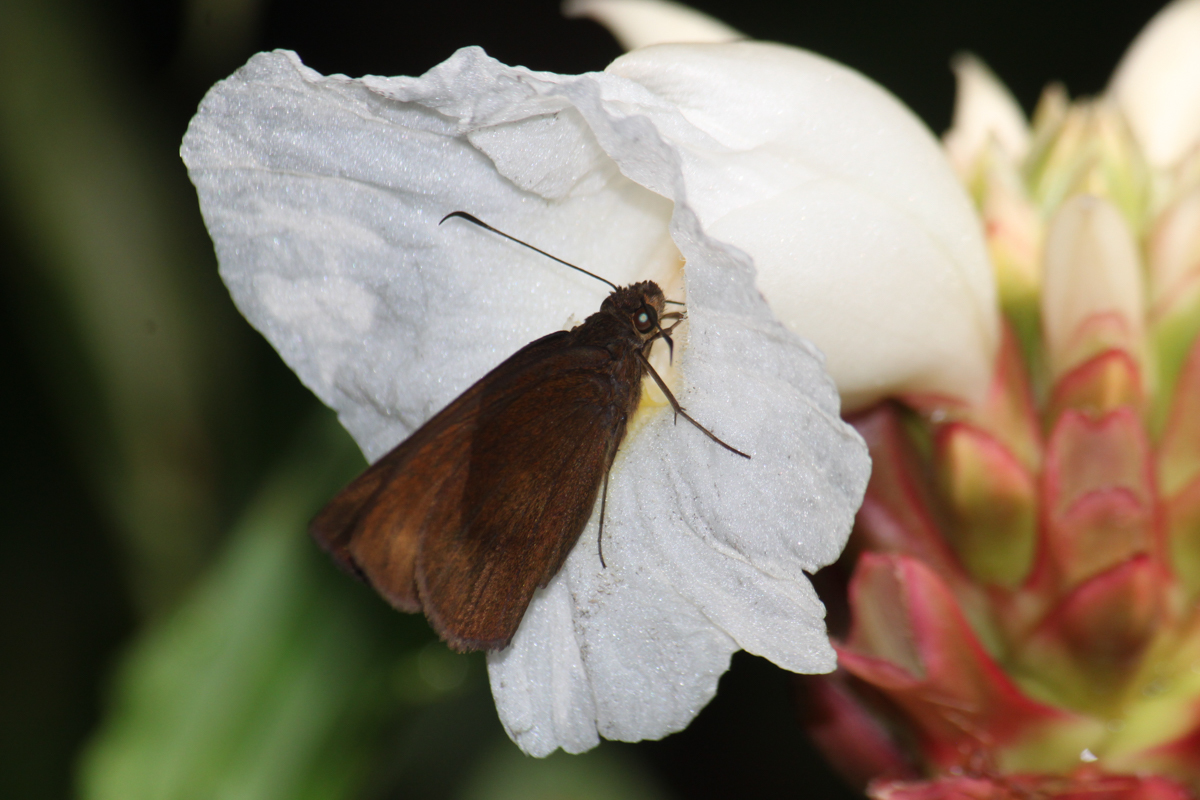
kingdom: Animalia
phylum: Arthropoda
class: Insecta
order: Lepidoptera
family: Hesperiidae
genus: Ancistroides
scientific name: Ancistroides nigrita
